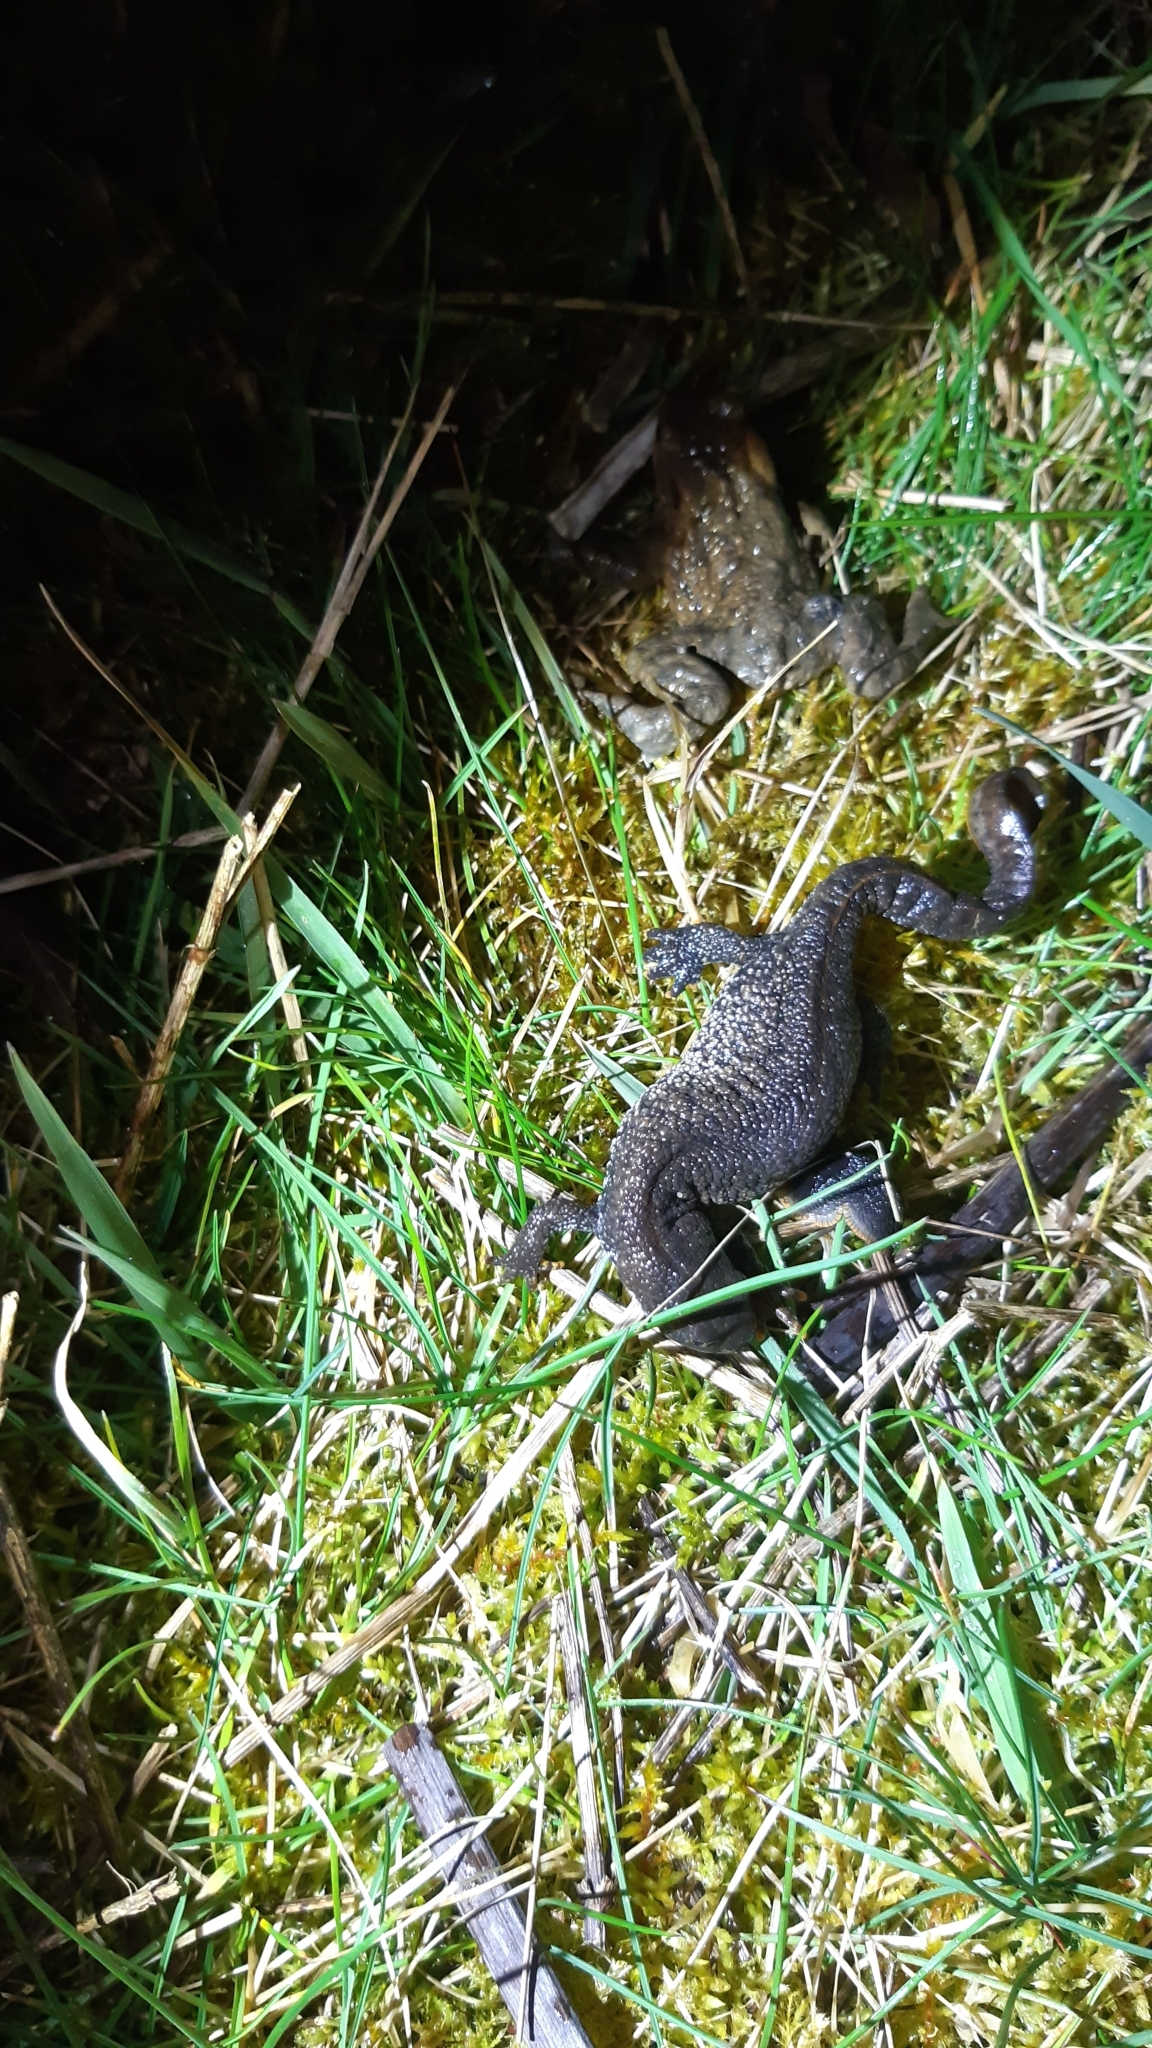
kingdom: Animalia
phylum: Chordata
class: Amphibia
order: Caudata
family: Salamandridae
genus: Triturus
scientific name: Triturus cristatus
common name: Crested newt
